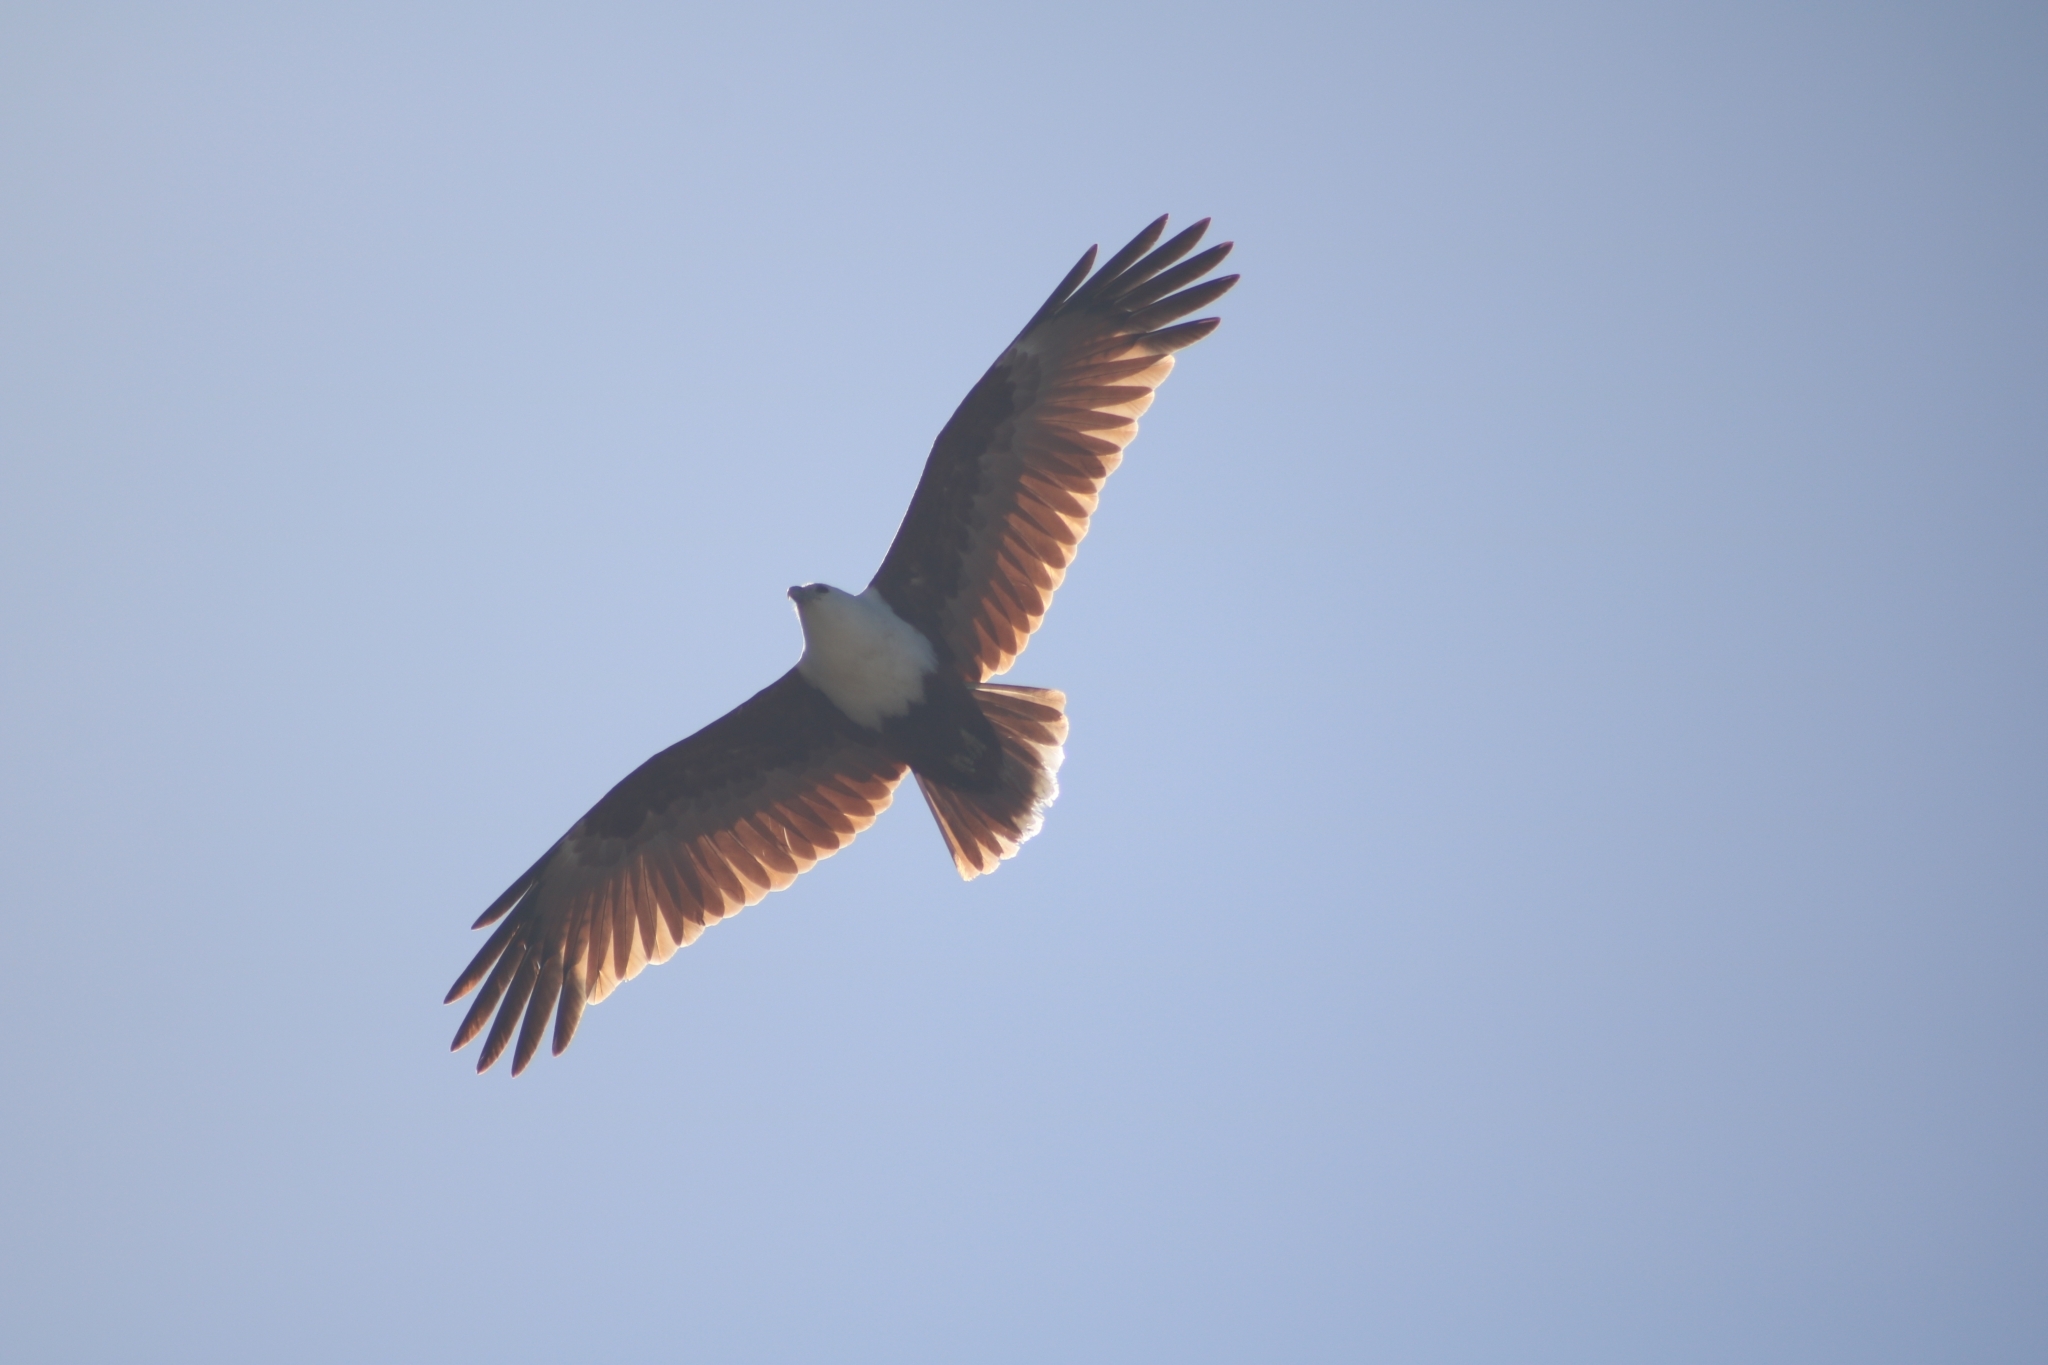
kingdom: Animalia
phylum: Chordata
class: Aves
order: Accipitriformes
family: Accipitridae
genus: Haliastur
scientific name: Haliastur indus
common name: Brahminy kite
